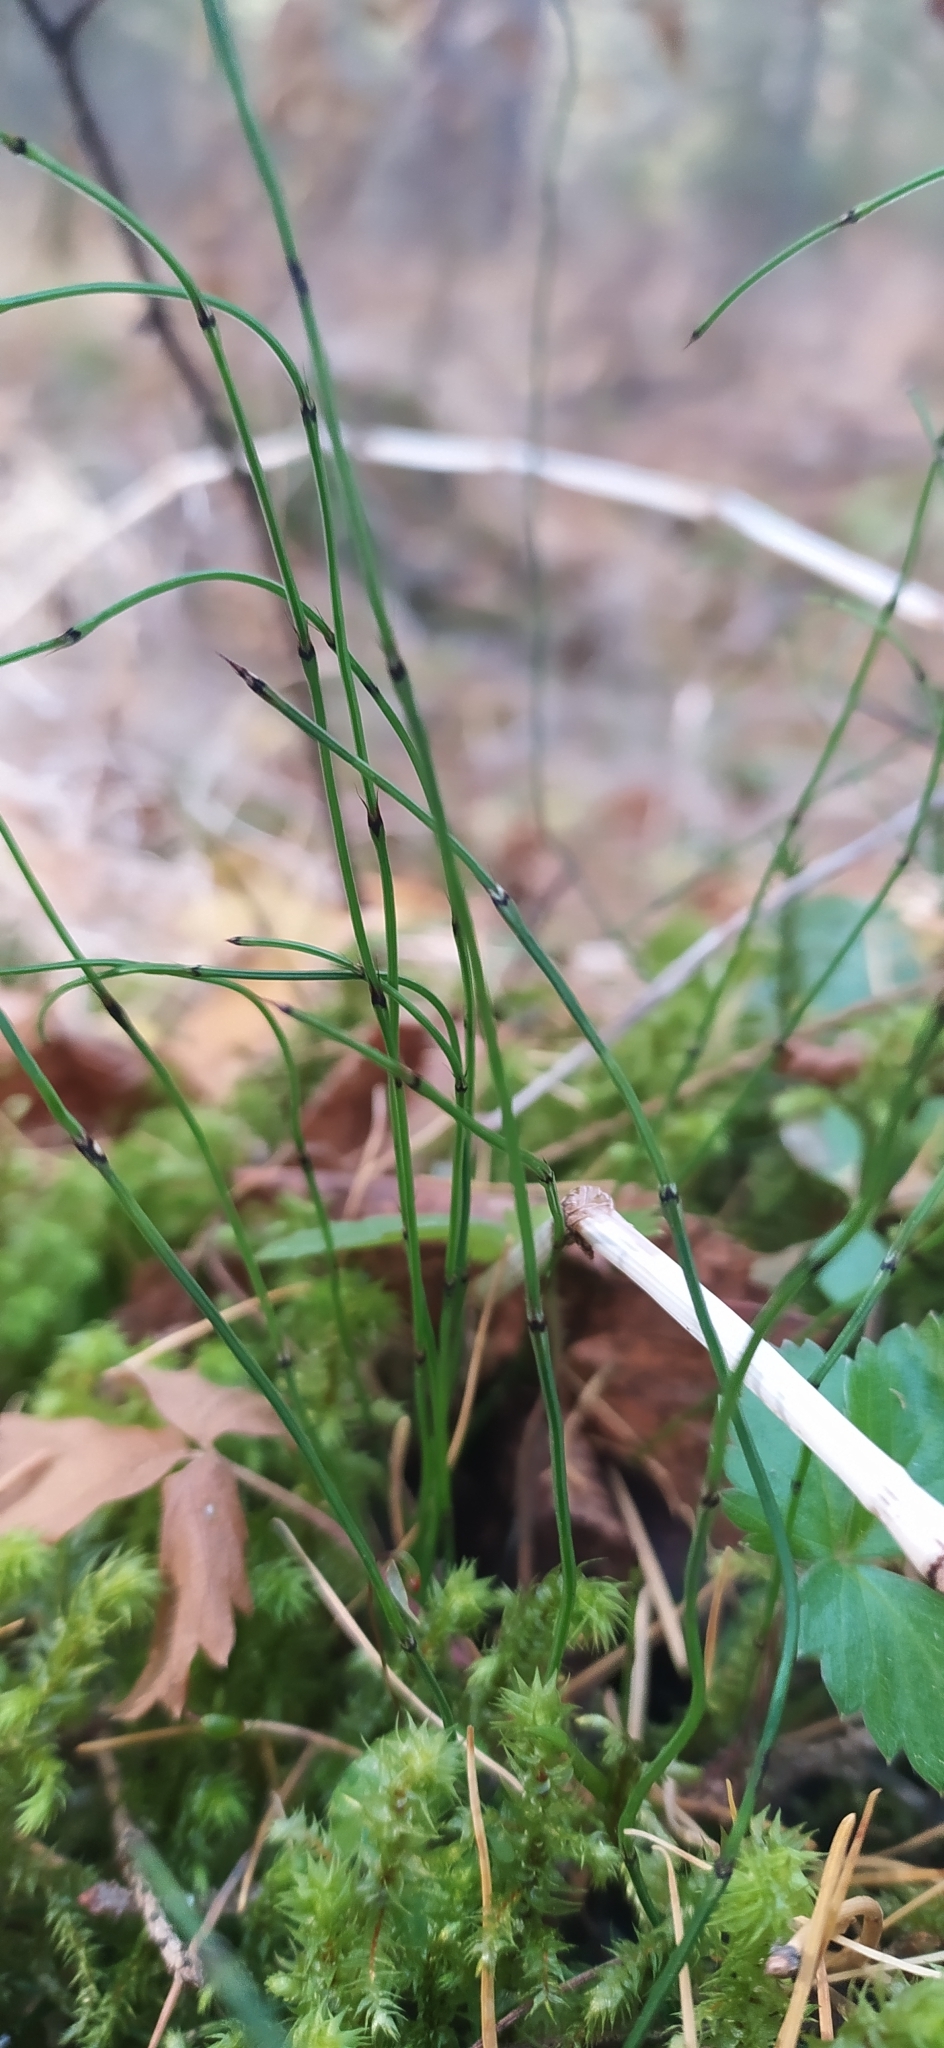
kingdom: Plantae
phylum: Tracheophyta
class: Polypodiopsida
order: Equisetales
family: Equisetaceae
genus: Equisetum
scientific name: Equisetum scirpoides
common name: Delicate horsetail
